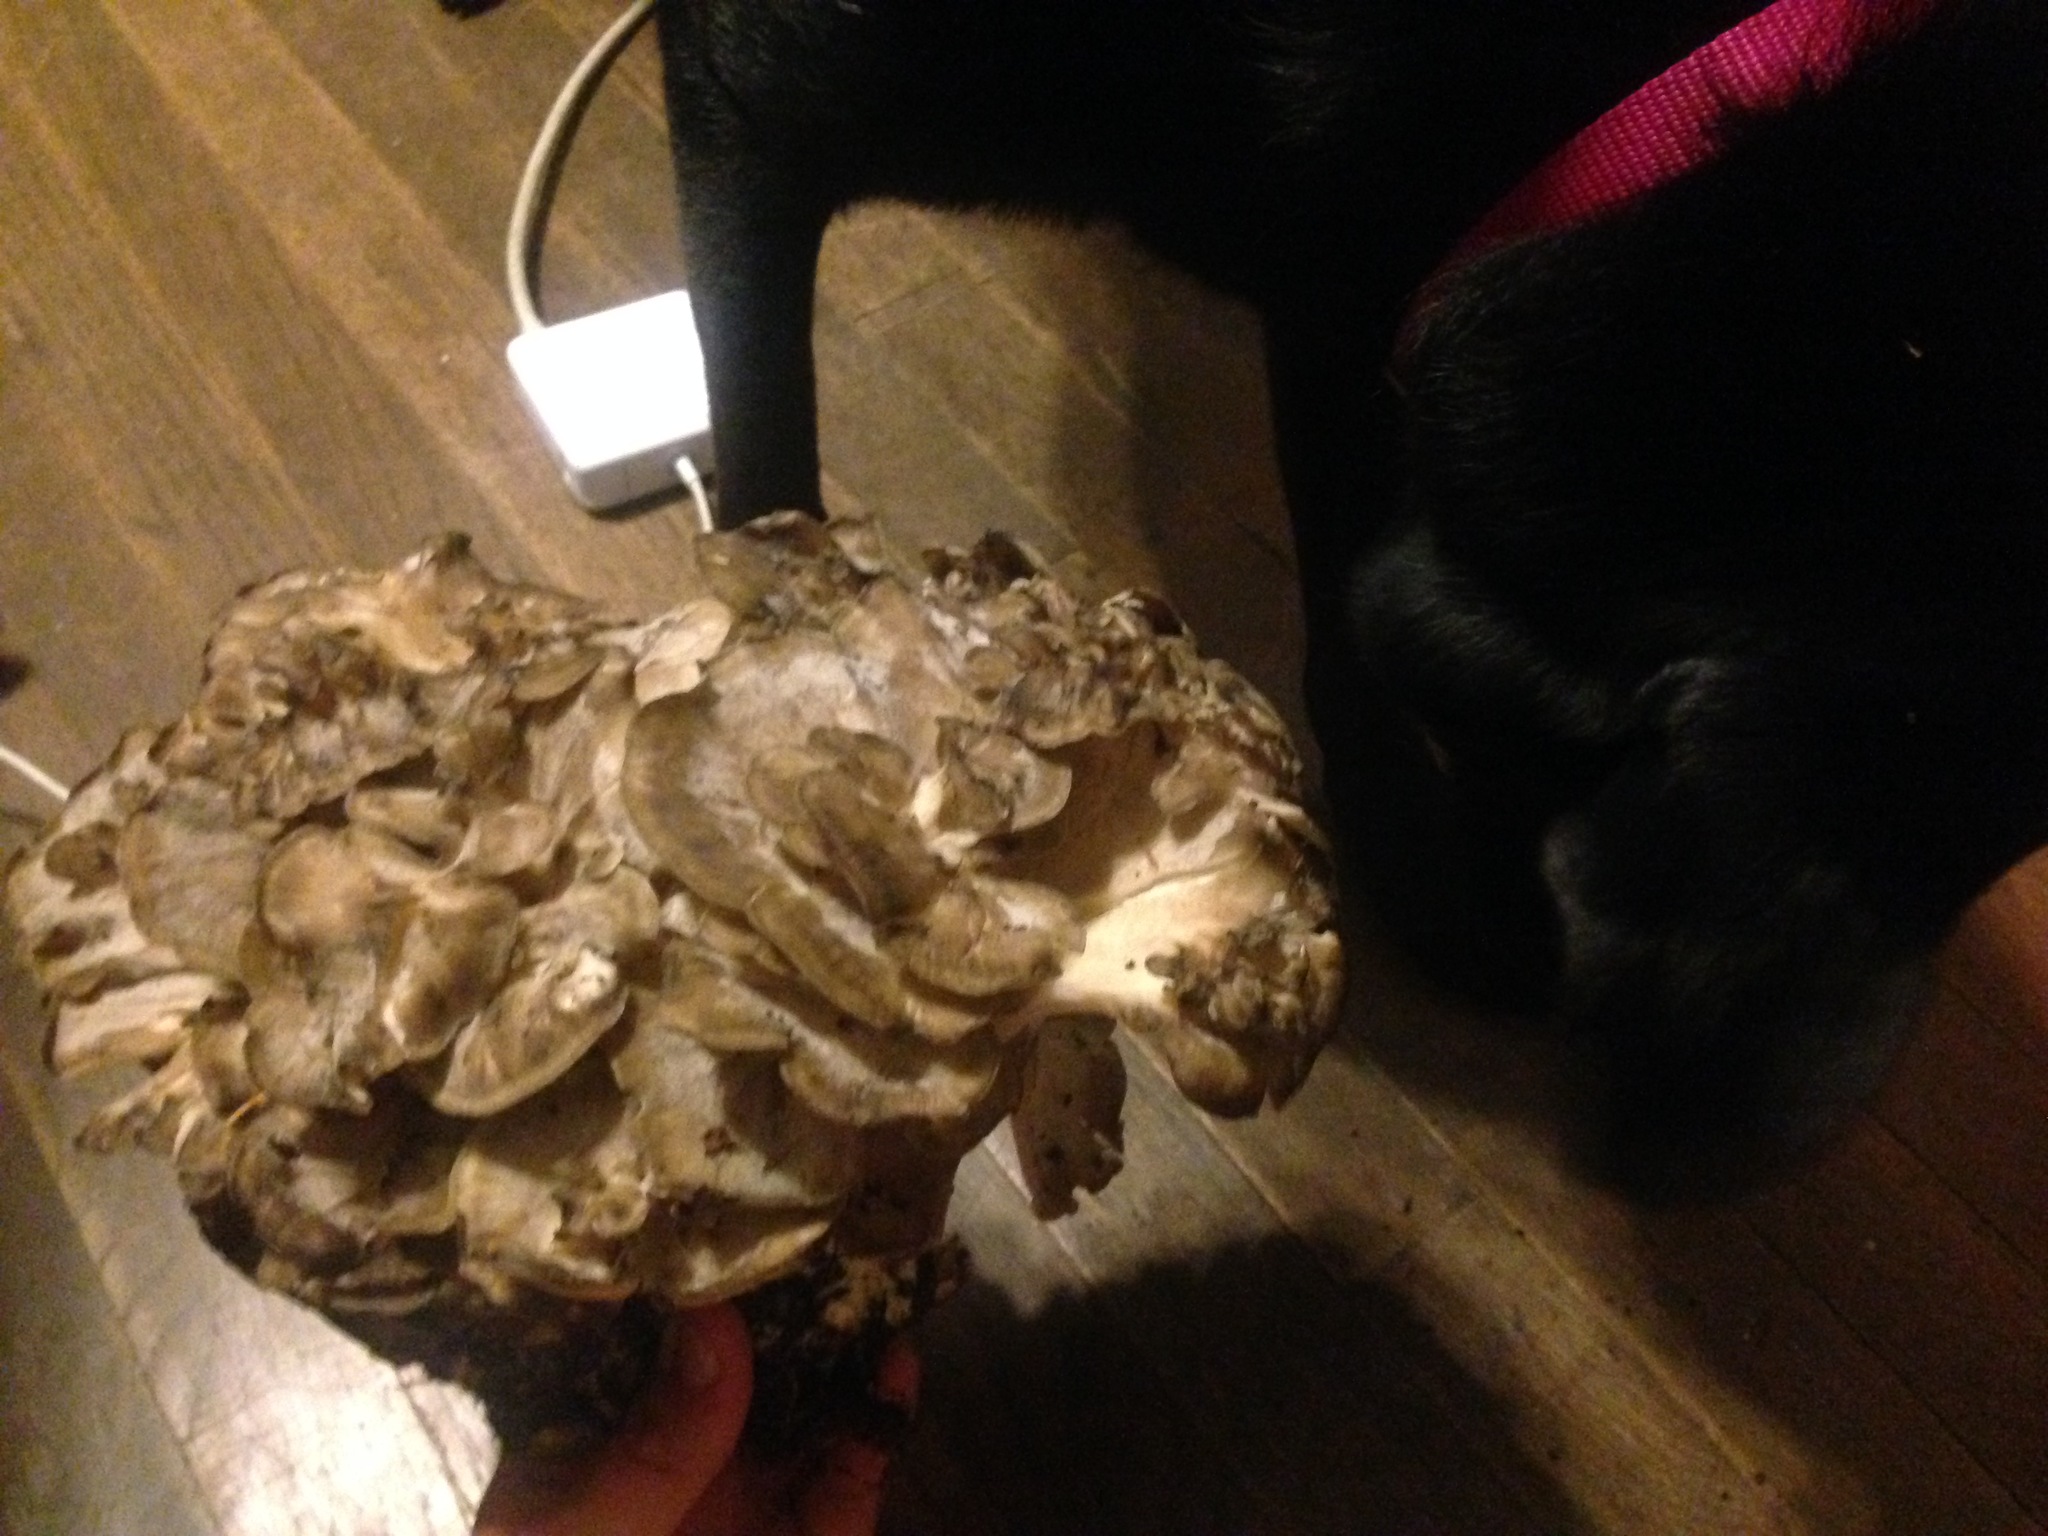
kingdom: Fungi
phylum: Basidiomycota
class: Agaricomycetes
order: Polyporales
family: Grifolaceae
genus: Grifola
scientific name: Grifola frondosa
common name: Hen of the woods
